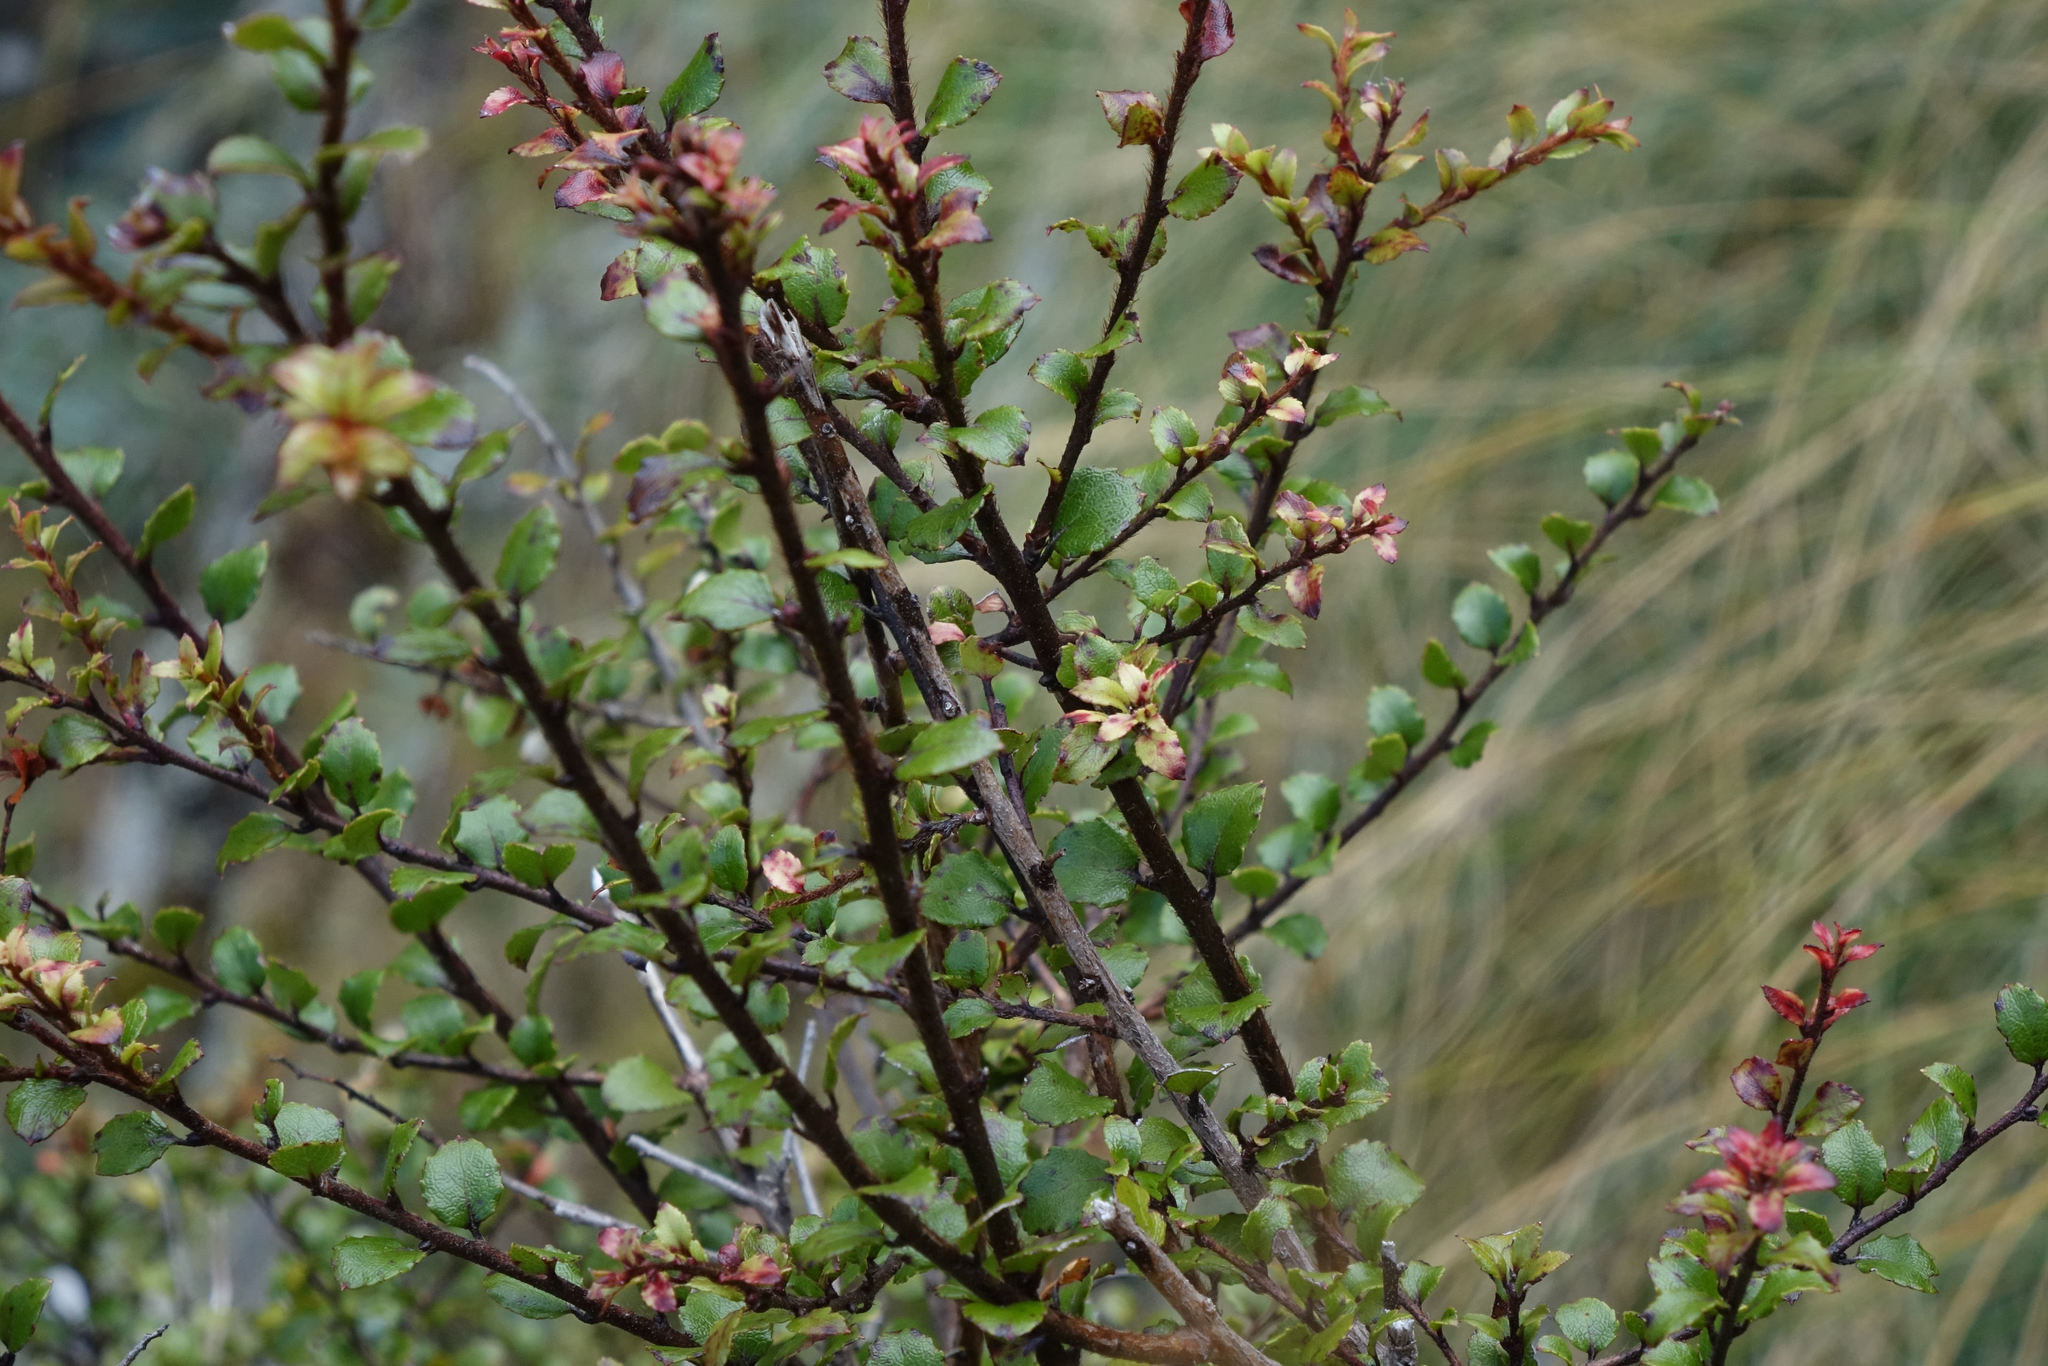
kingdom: Plantae
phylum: Tracheophyta
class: Magnoliopsida
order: Ericales
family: Ericaceae
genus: Gaultheria
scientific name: Gaultheria antipoda
